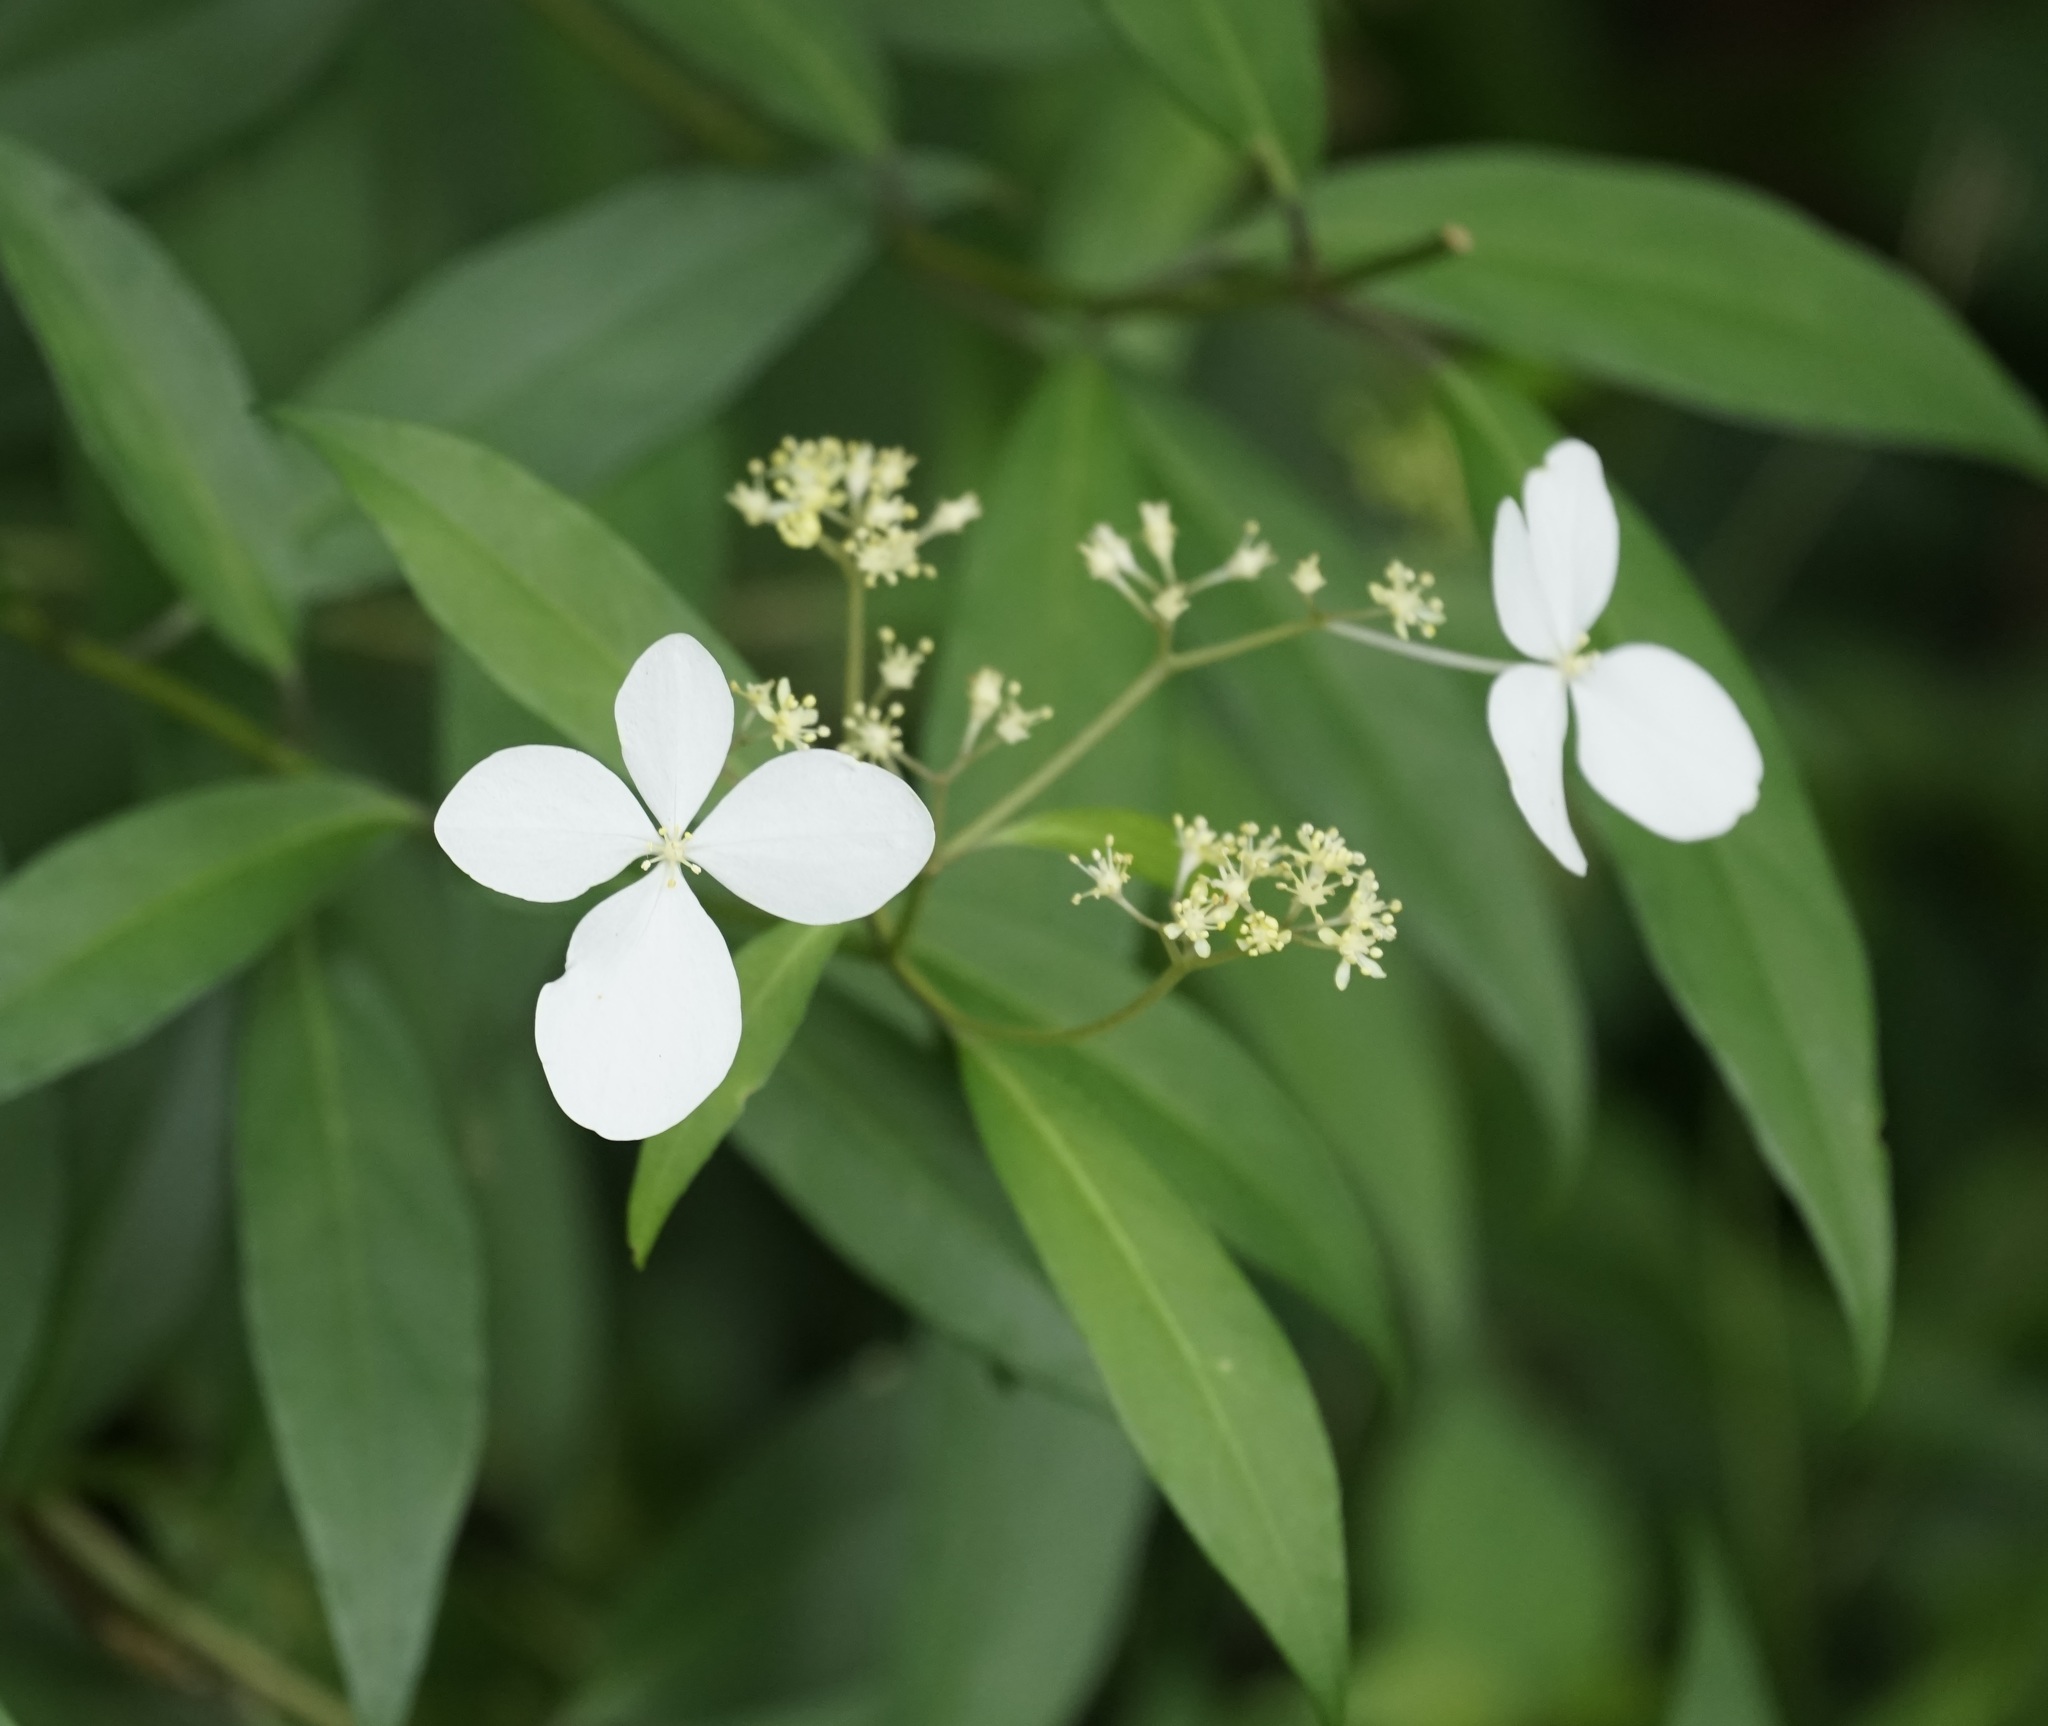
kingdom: Plantae
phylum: Tracheophyta
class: Magnoliopsida
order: Cornales
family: Hydrangeaceae
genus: Hydrangea
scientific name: Hydrangea chinensis
